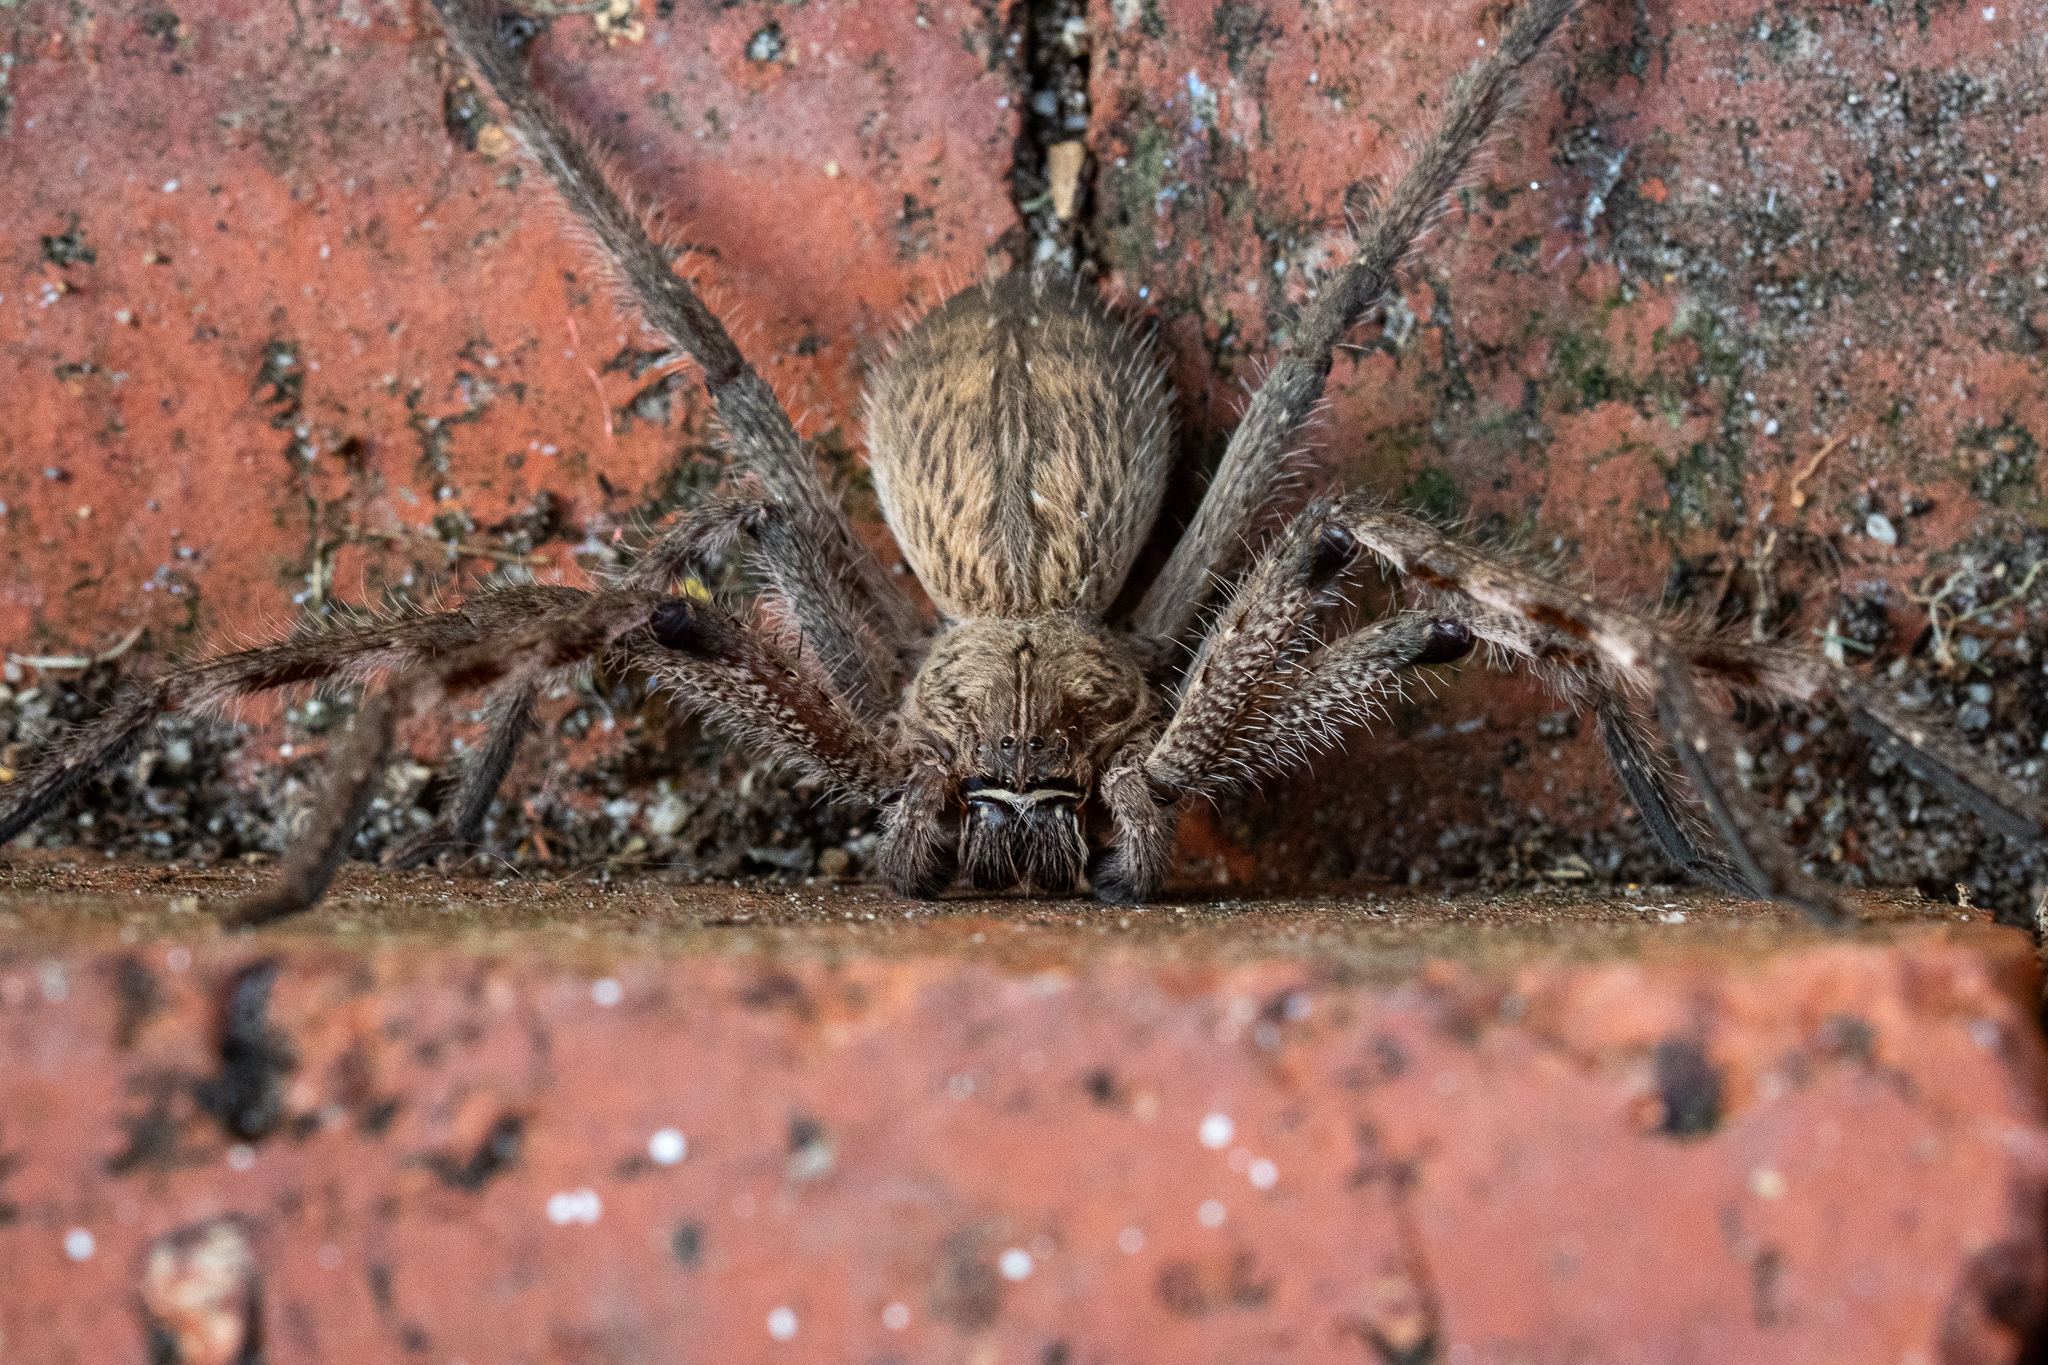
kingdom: Animalia
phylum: Arthropoda
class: Arachnida
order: Araneae
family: Sparassidae
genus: Palystes
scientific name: Palystes superciliosus
